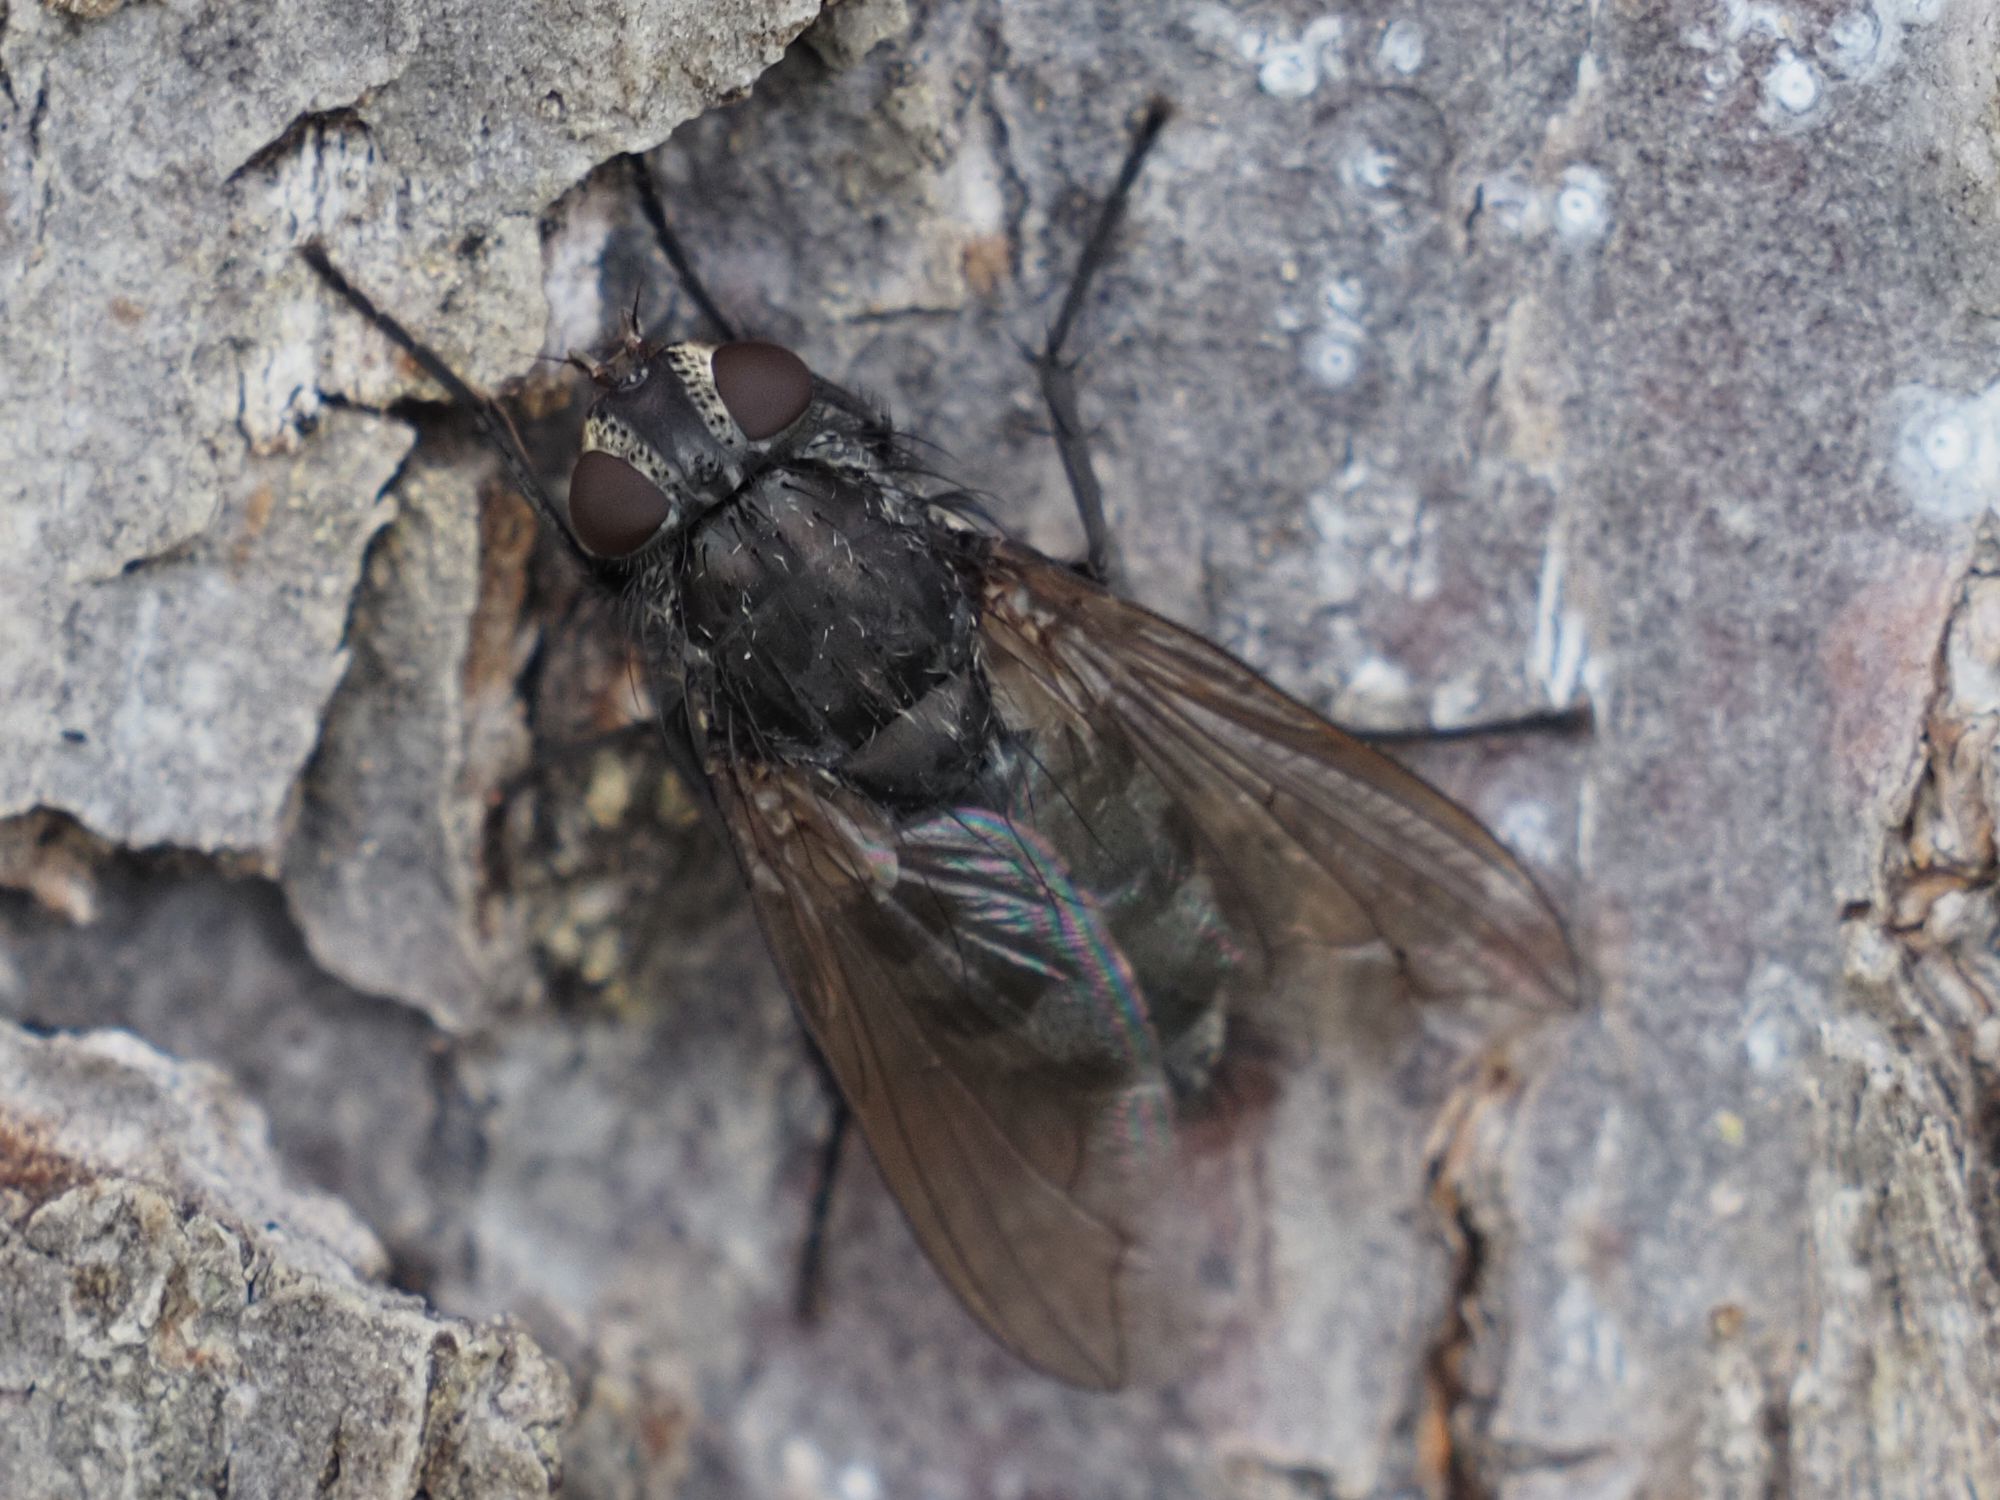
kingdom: Animalia
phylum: Arthropoda
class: Insecta
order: Diptera
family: Polleniidae
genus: Pollenia
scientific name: Pollenia vagabunda
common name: Vagabund cluster fly
